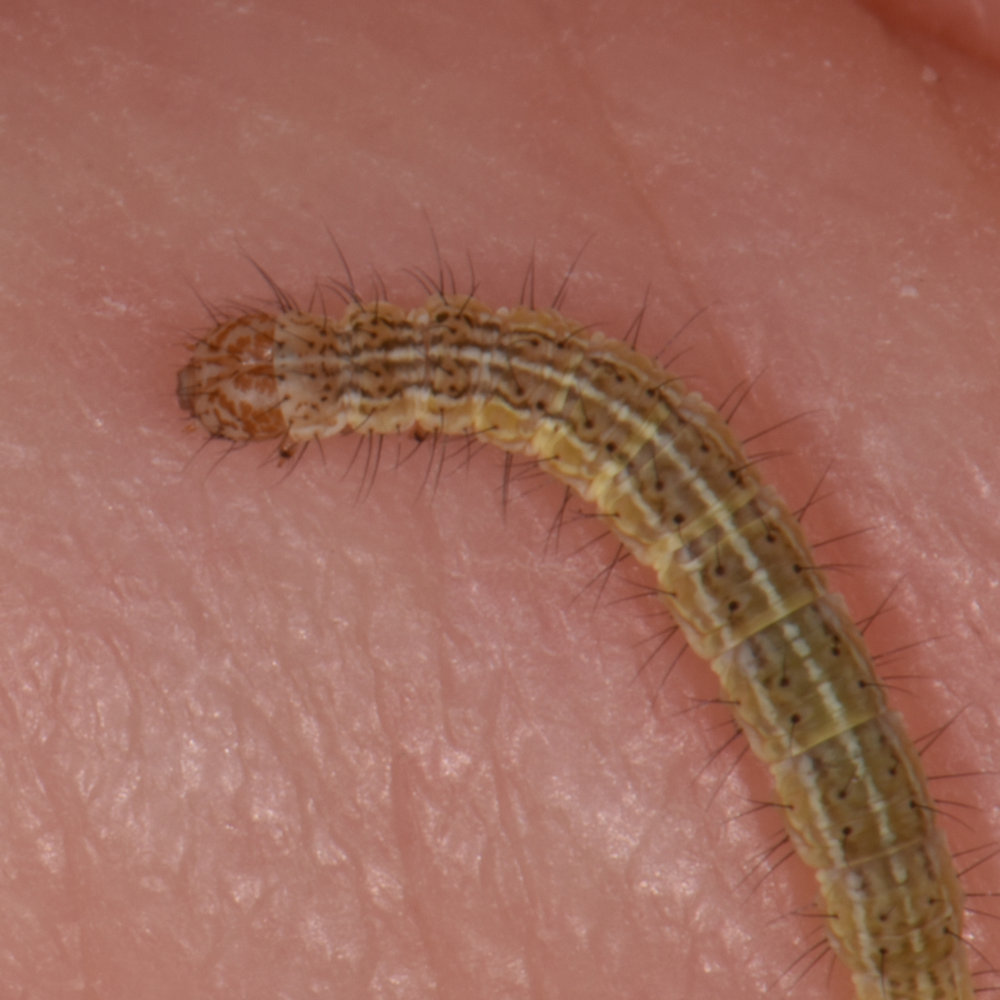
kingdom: Animalia
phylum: Arthropoda
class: Insecta
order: Lepidoptera
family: Ypsolophidae
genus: Ypsolopha
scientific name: Ypsolopha dentella
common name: Honeysuckle moth
